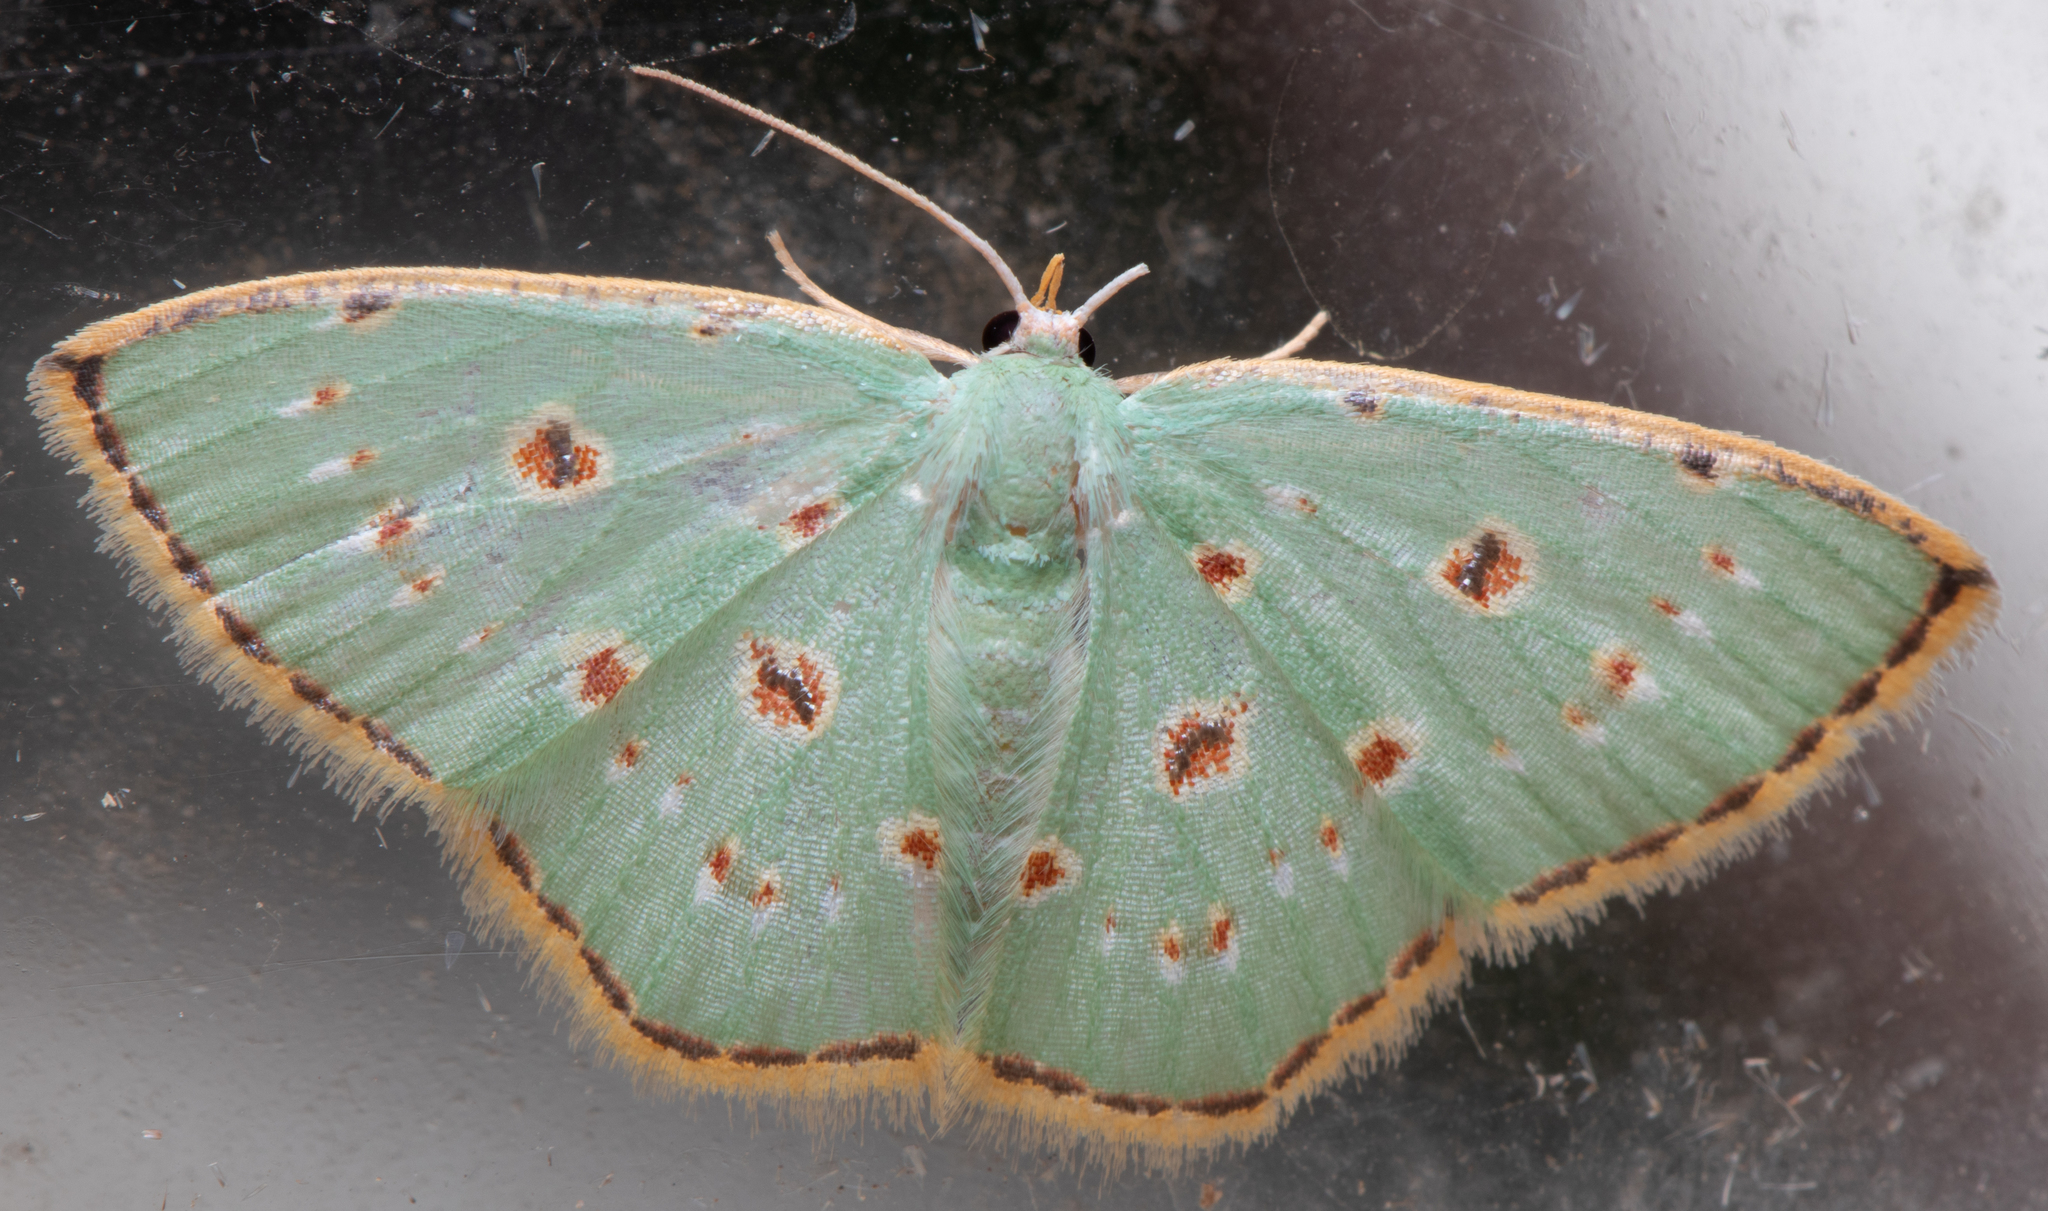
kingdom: Animalia
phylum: Arthropoda
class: Insecta
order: Lepidoptera
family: Geometridae
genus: Comostola
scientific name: Comostola laesaria
